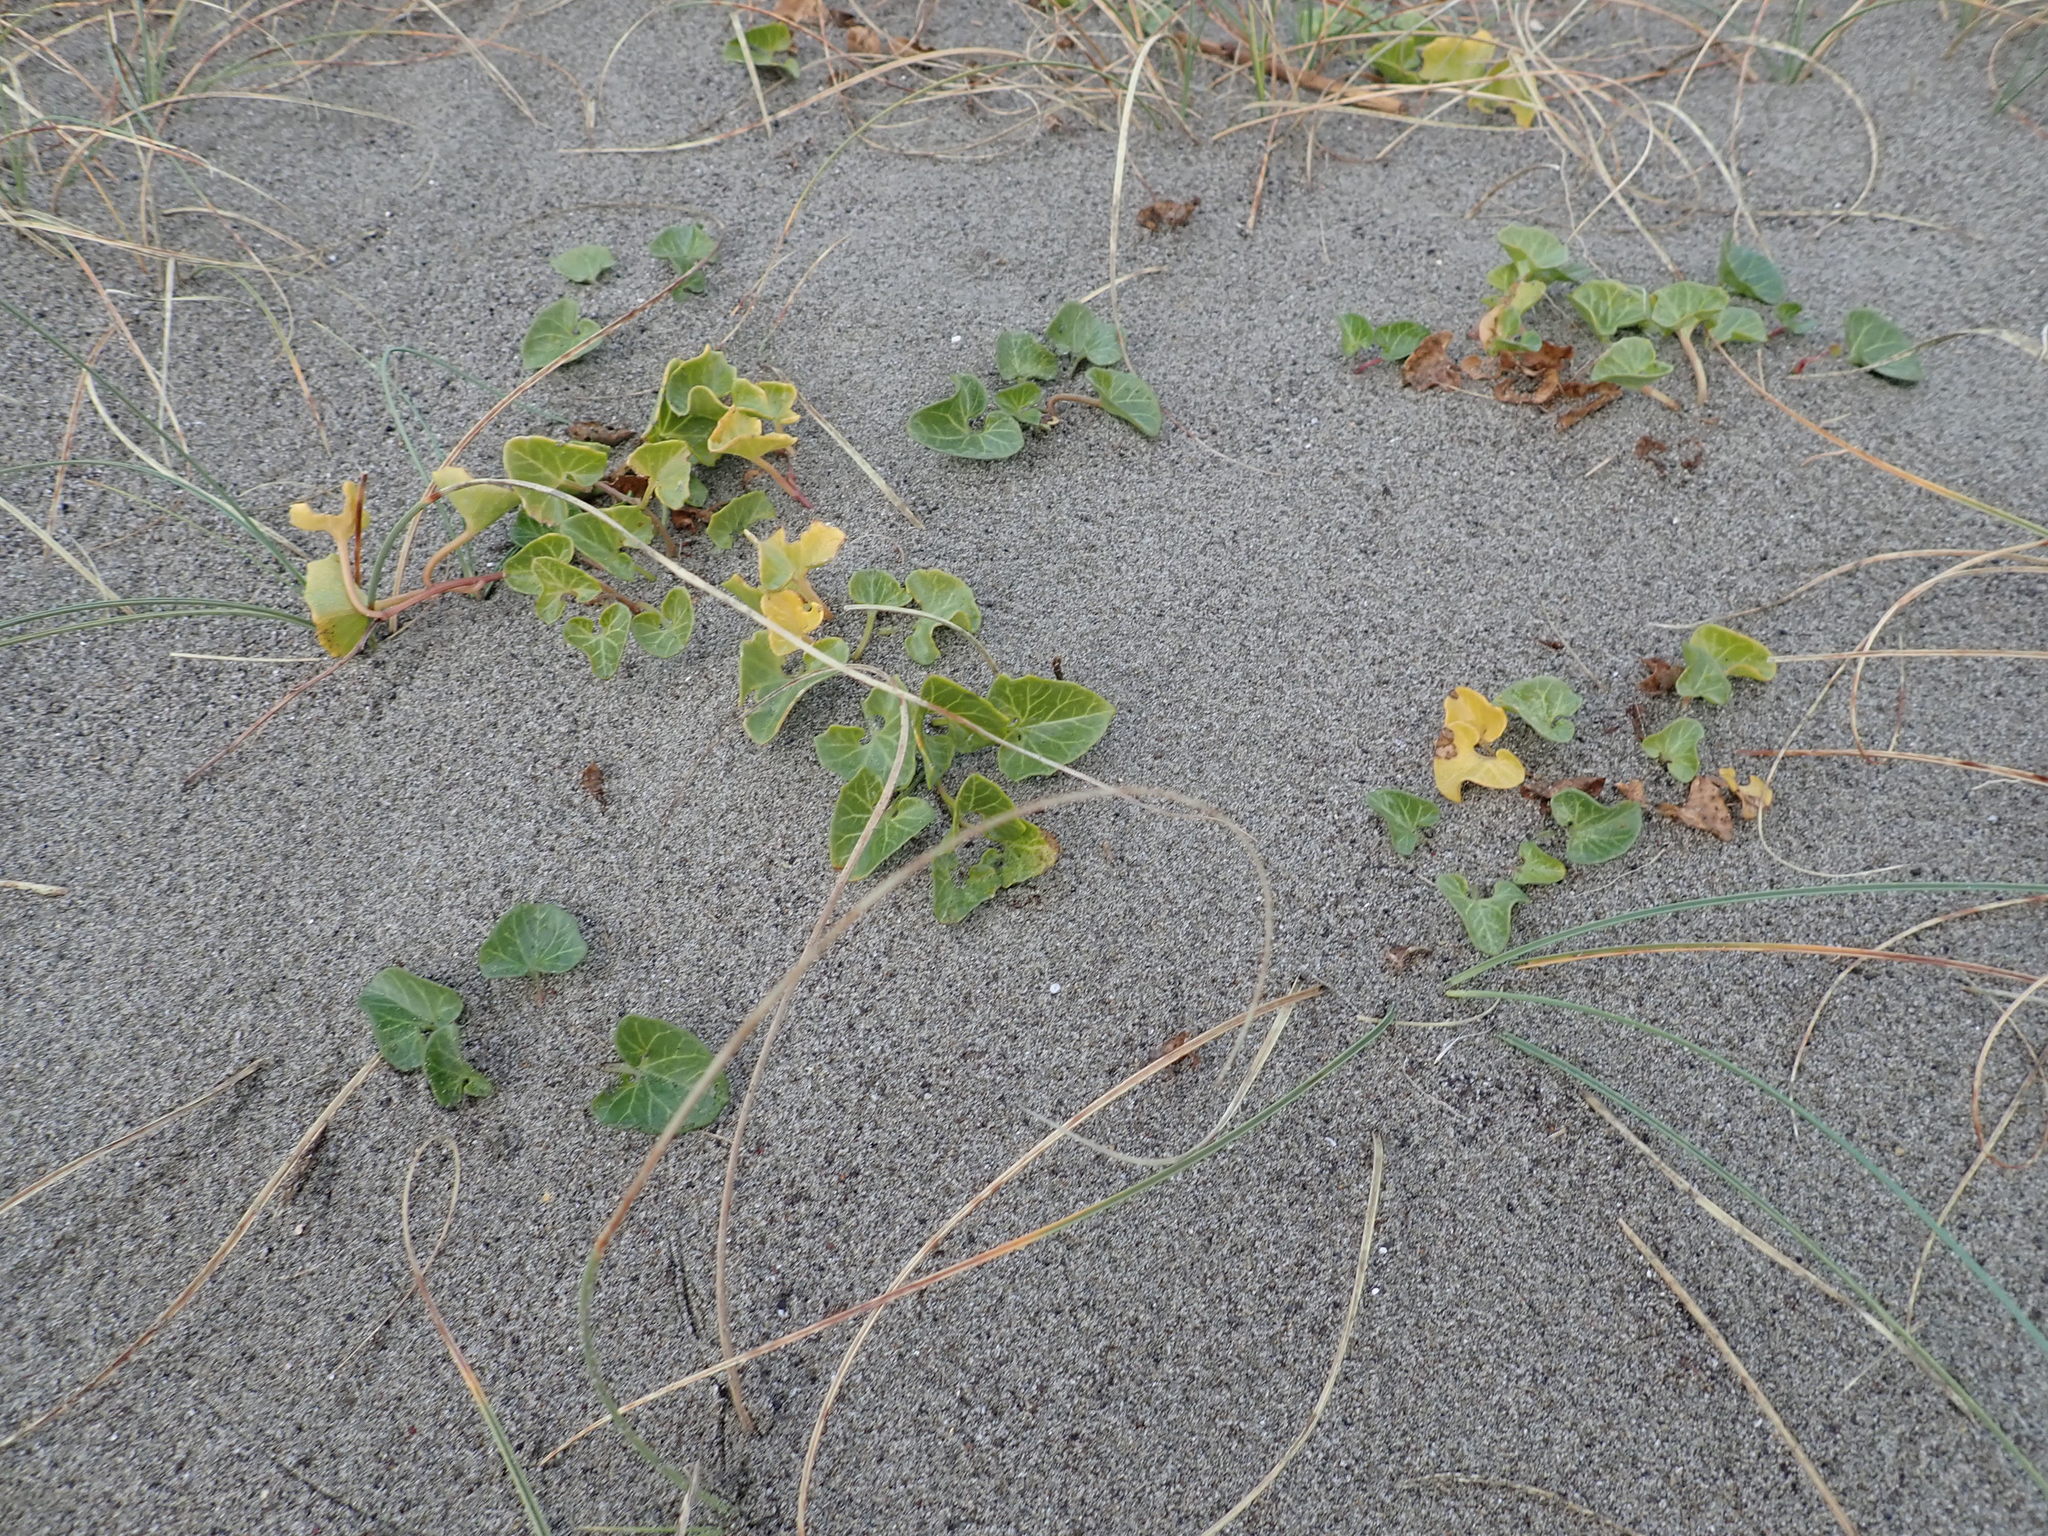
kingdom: Plantae
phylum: Tracheophyta
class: Magnoliopsida
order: Solanales
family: Convolvulaceae
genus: Calystegia
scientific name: Calystegia soldanella
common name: Sea bindweed
